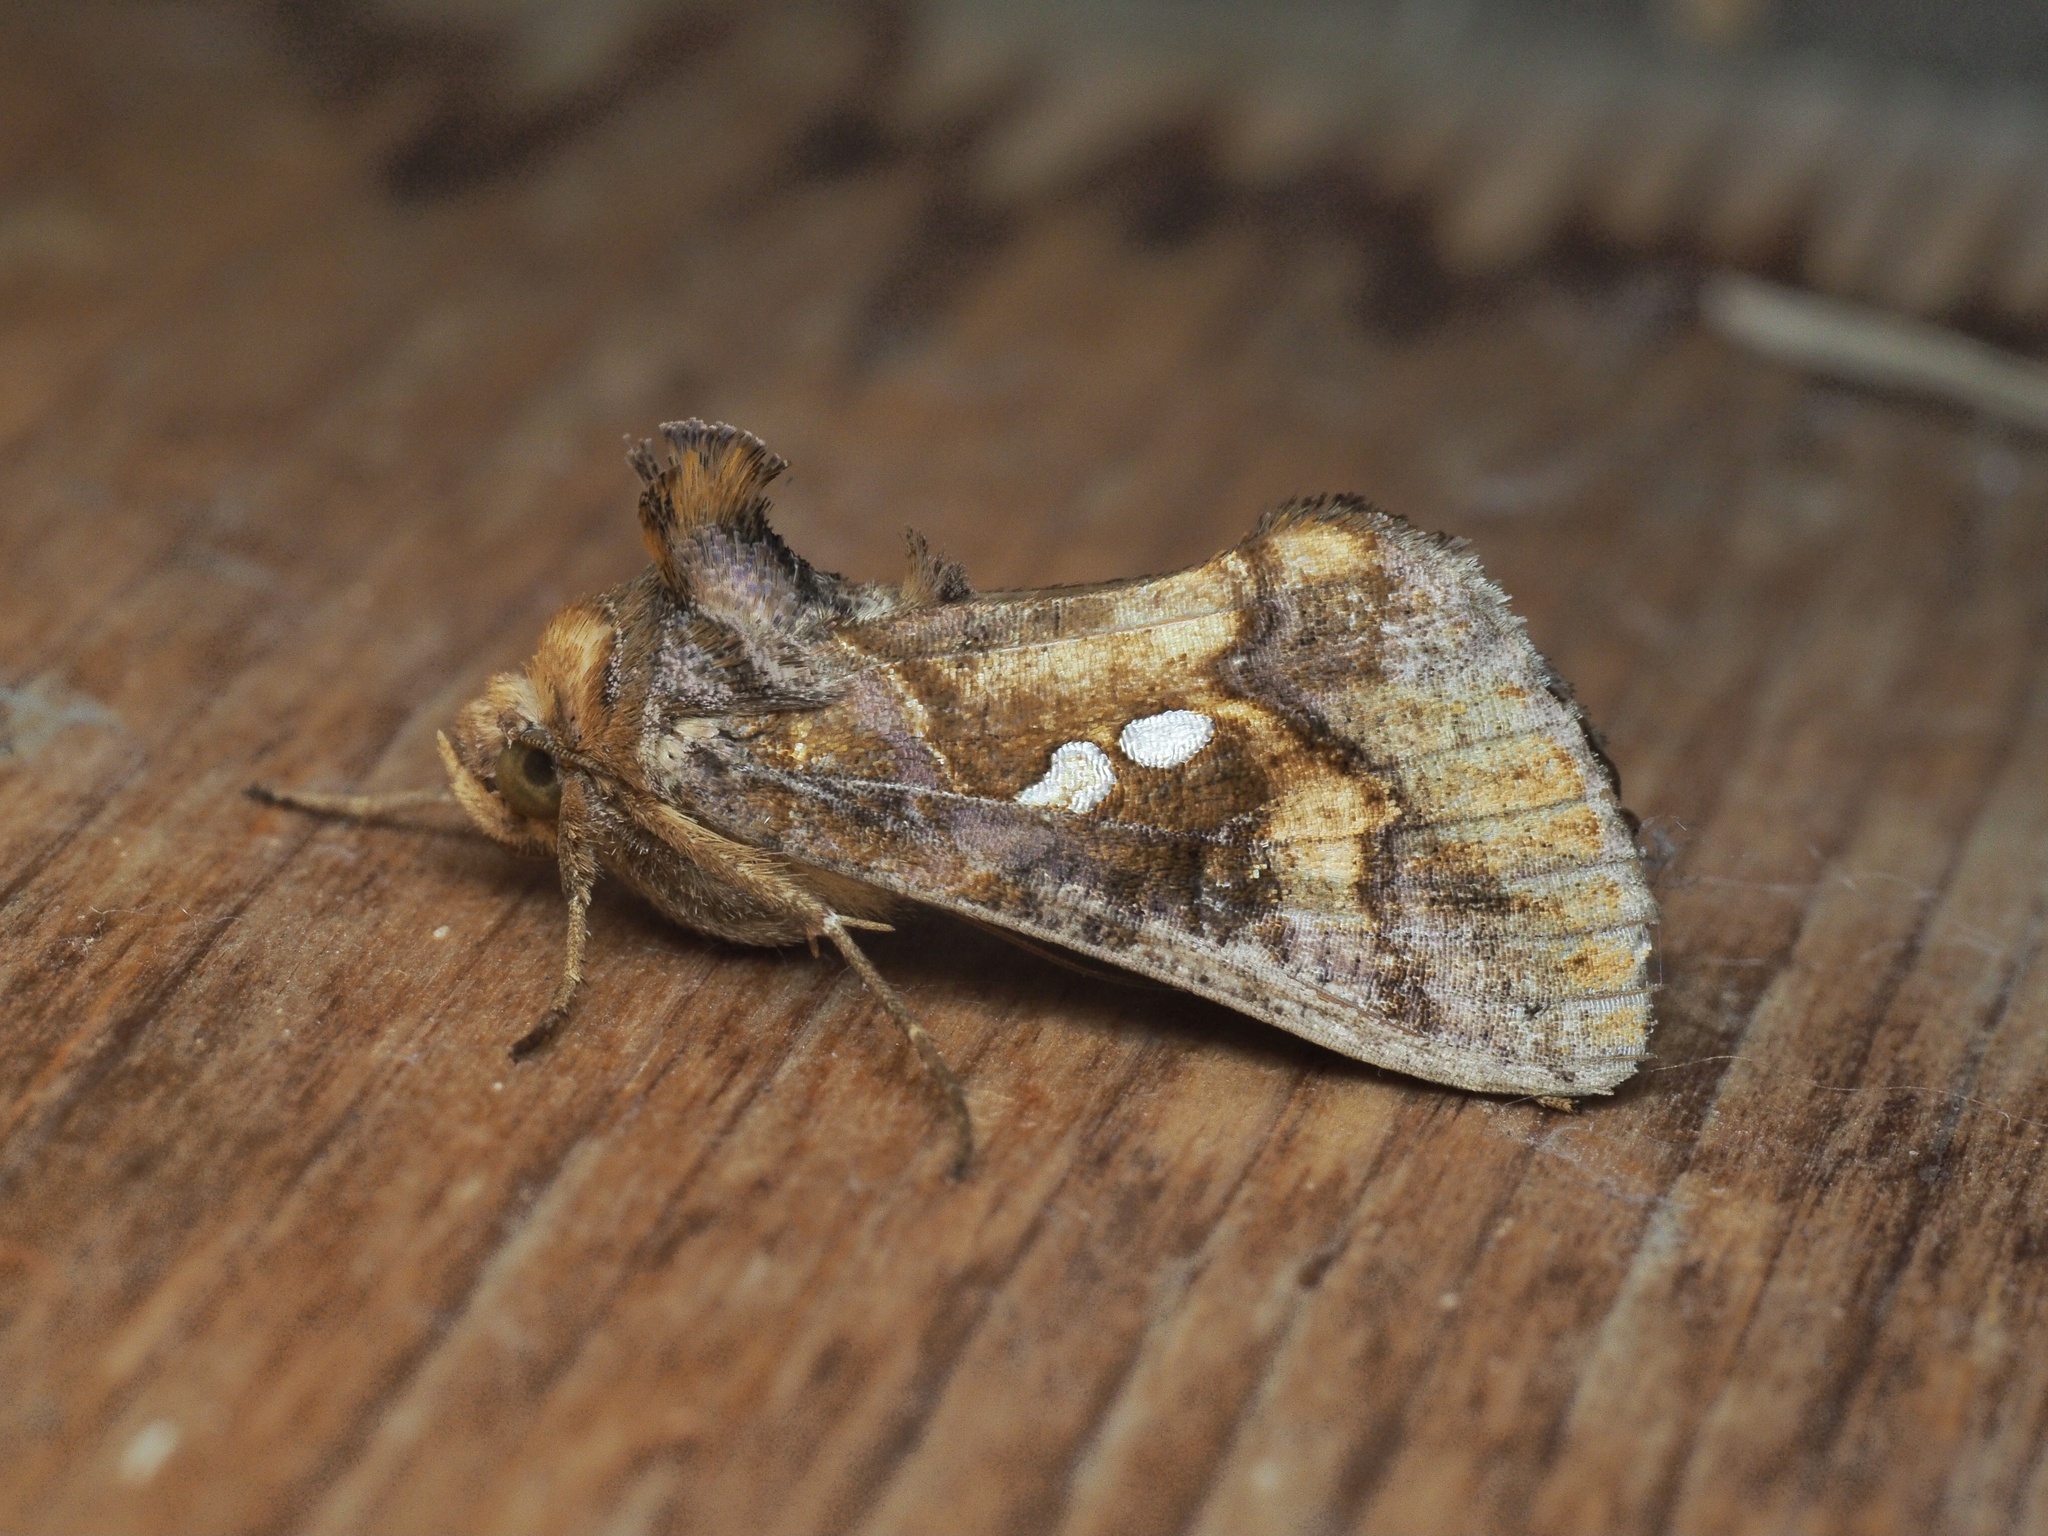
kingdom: Animalia
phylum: Arthropoda
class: Insecta
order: Lepidoptera
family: Noctuidae
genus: Chrysodeixis
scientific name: Chrysodeixis chalcites
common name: Golden twin-spot
